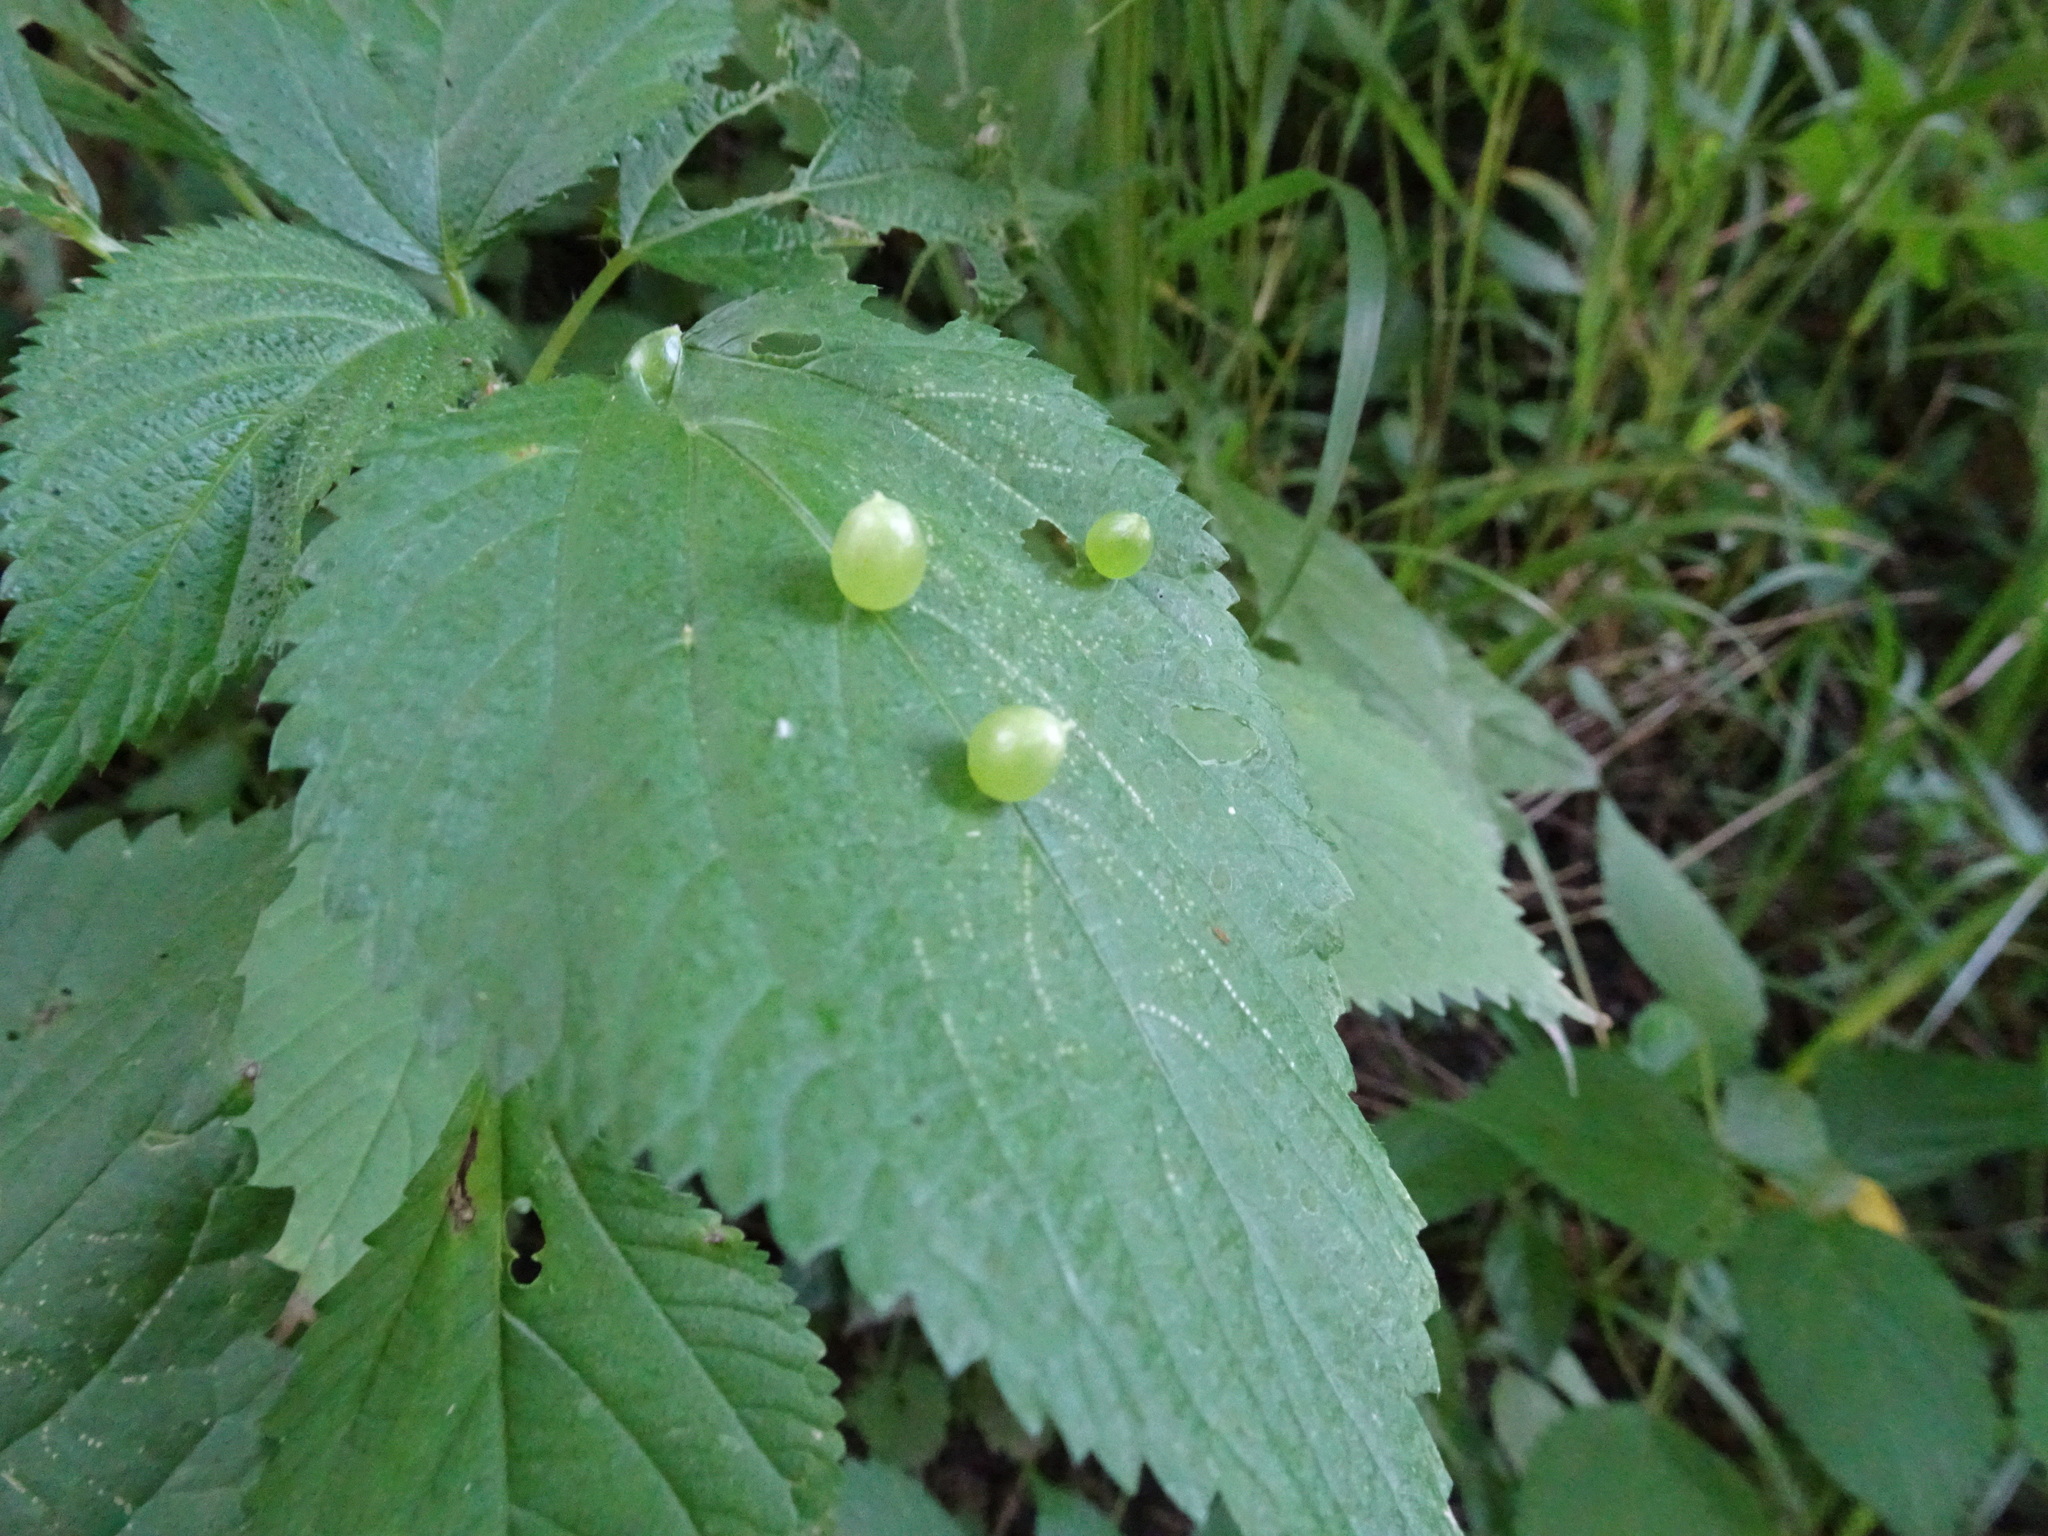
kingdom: Animalia
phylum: Arthropoda
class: Insecta
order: Diptera
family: Cecidomyiidae
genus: Dasineura
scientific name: Dasineura investita
